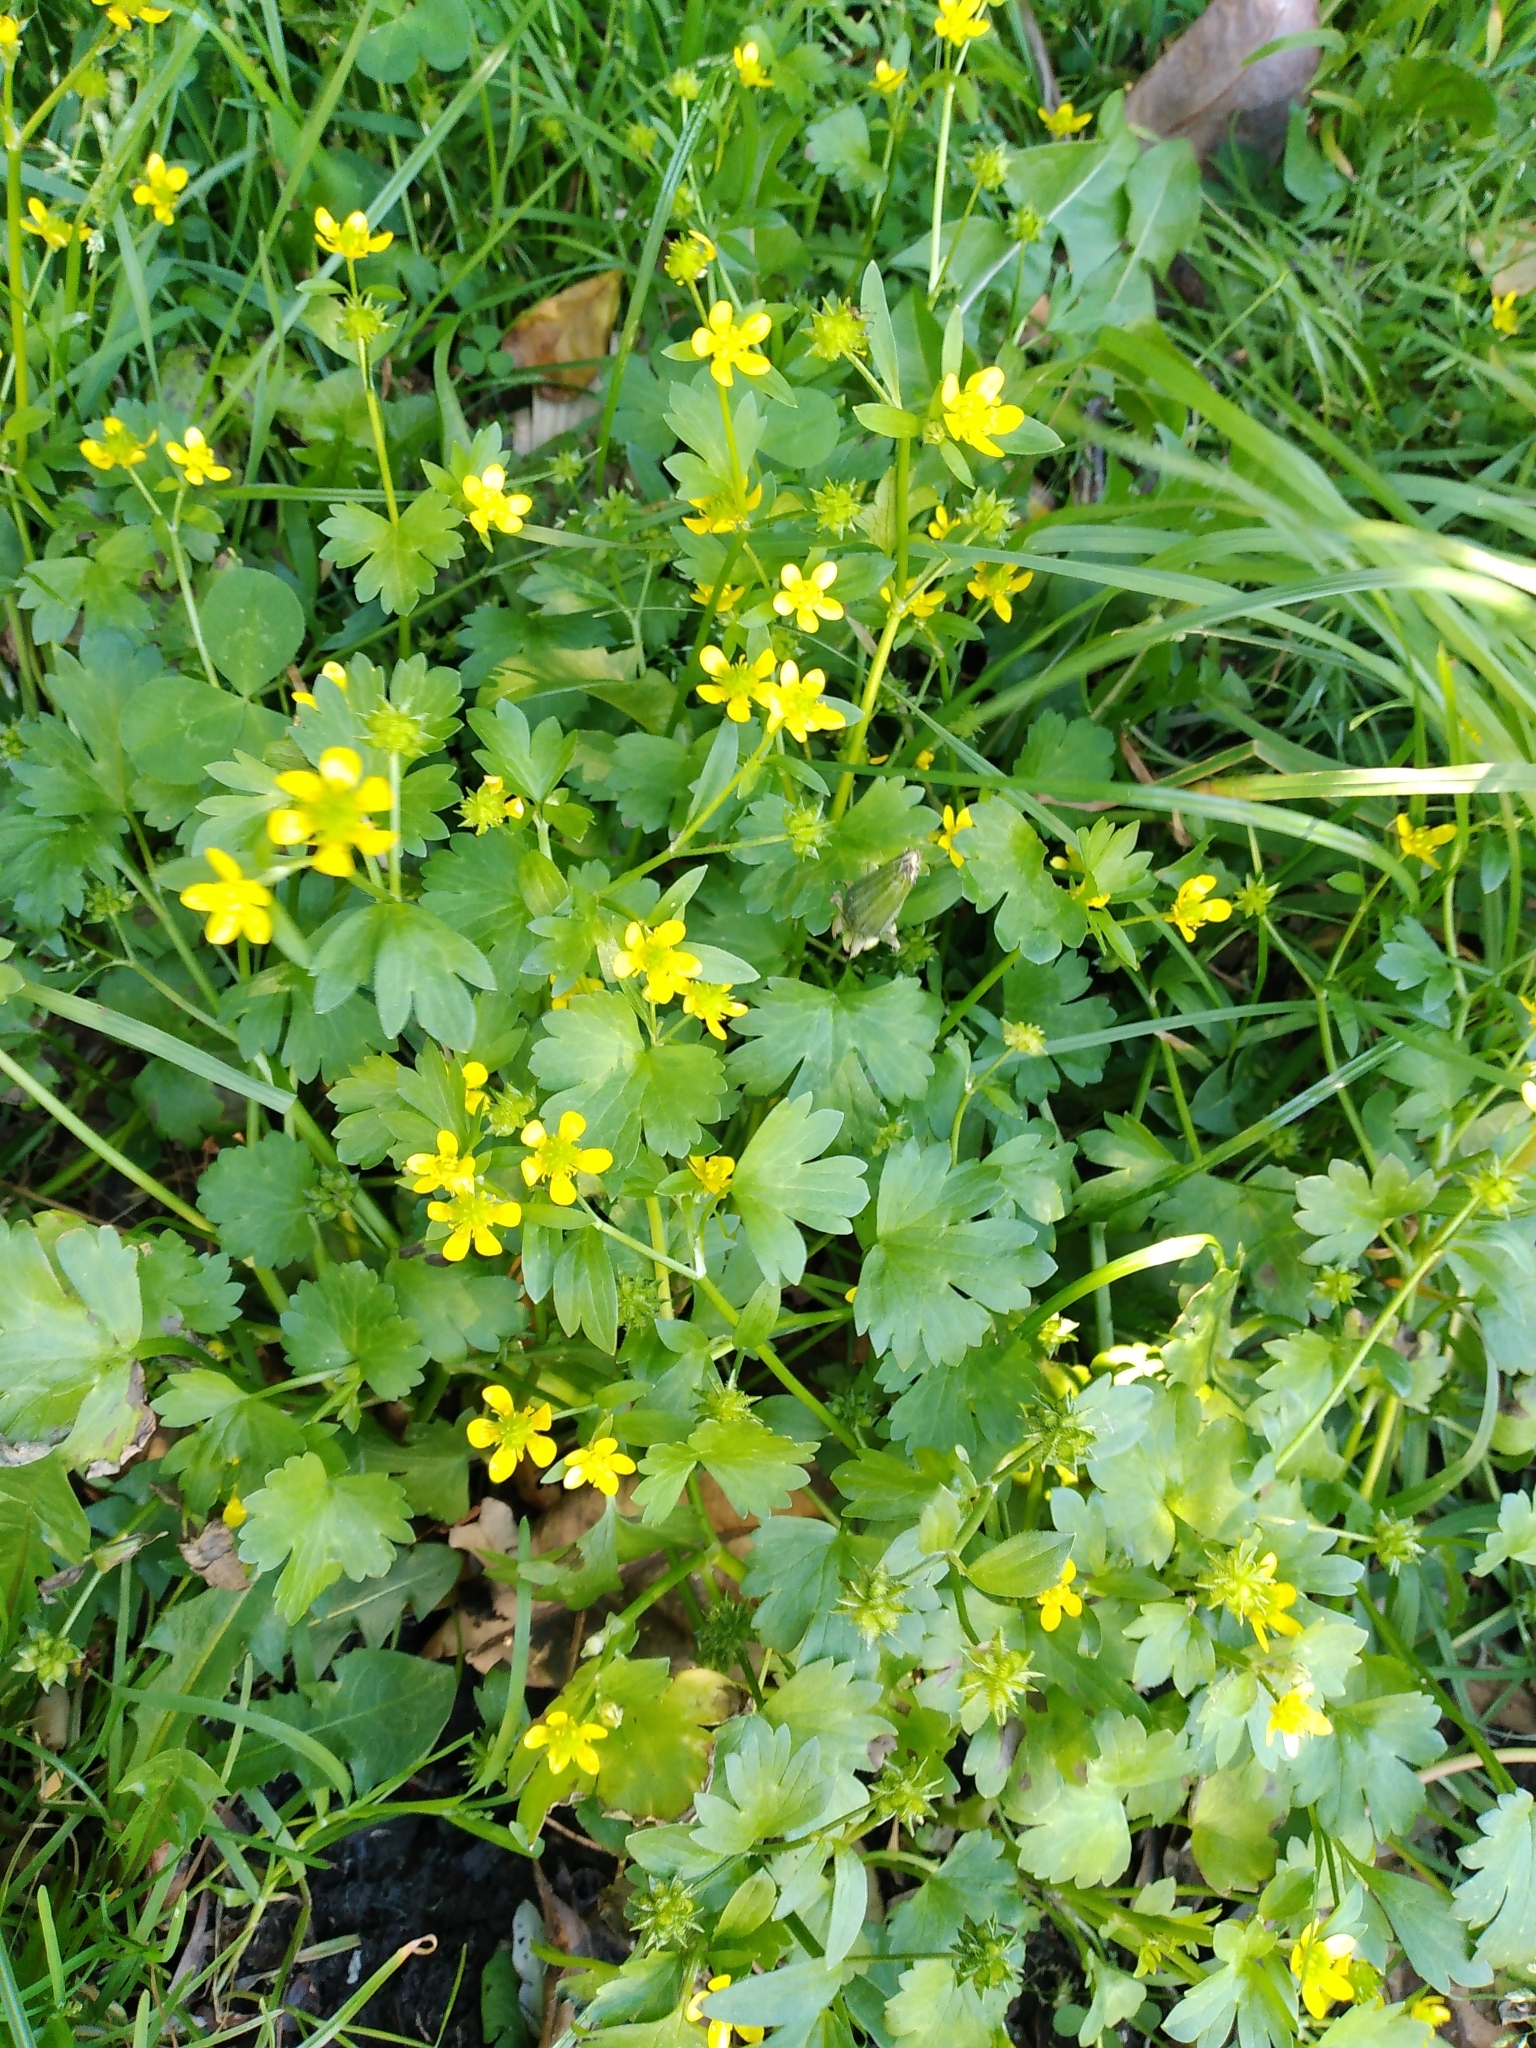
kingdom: Plantae
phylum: Tracheophyta
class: Magnoliopsida
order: Ranunculales
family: Ranunculaceae
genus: Ranunculus
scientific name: Ranunculus muricatus
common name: Rough-fruited buttercup
